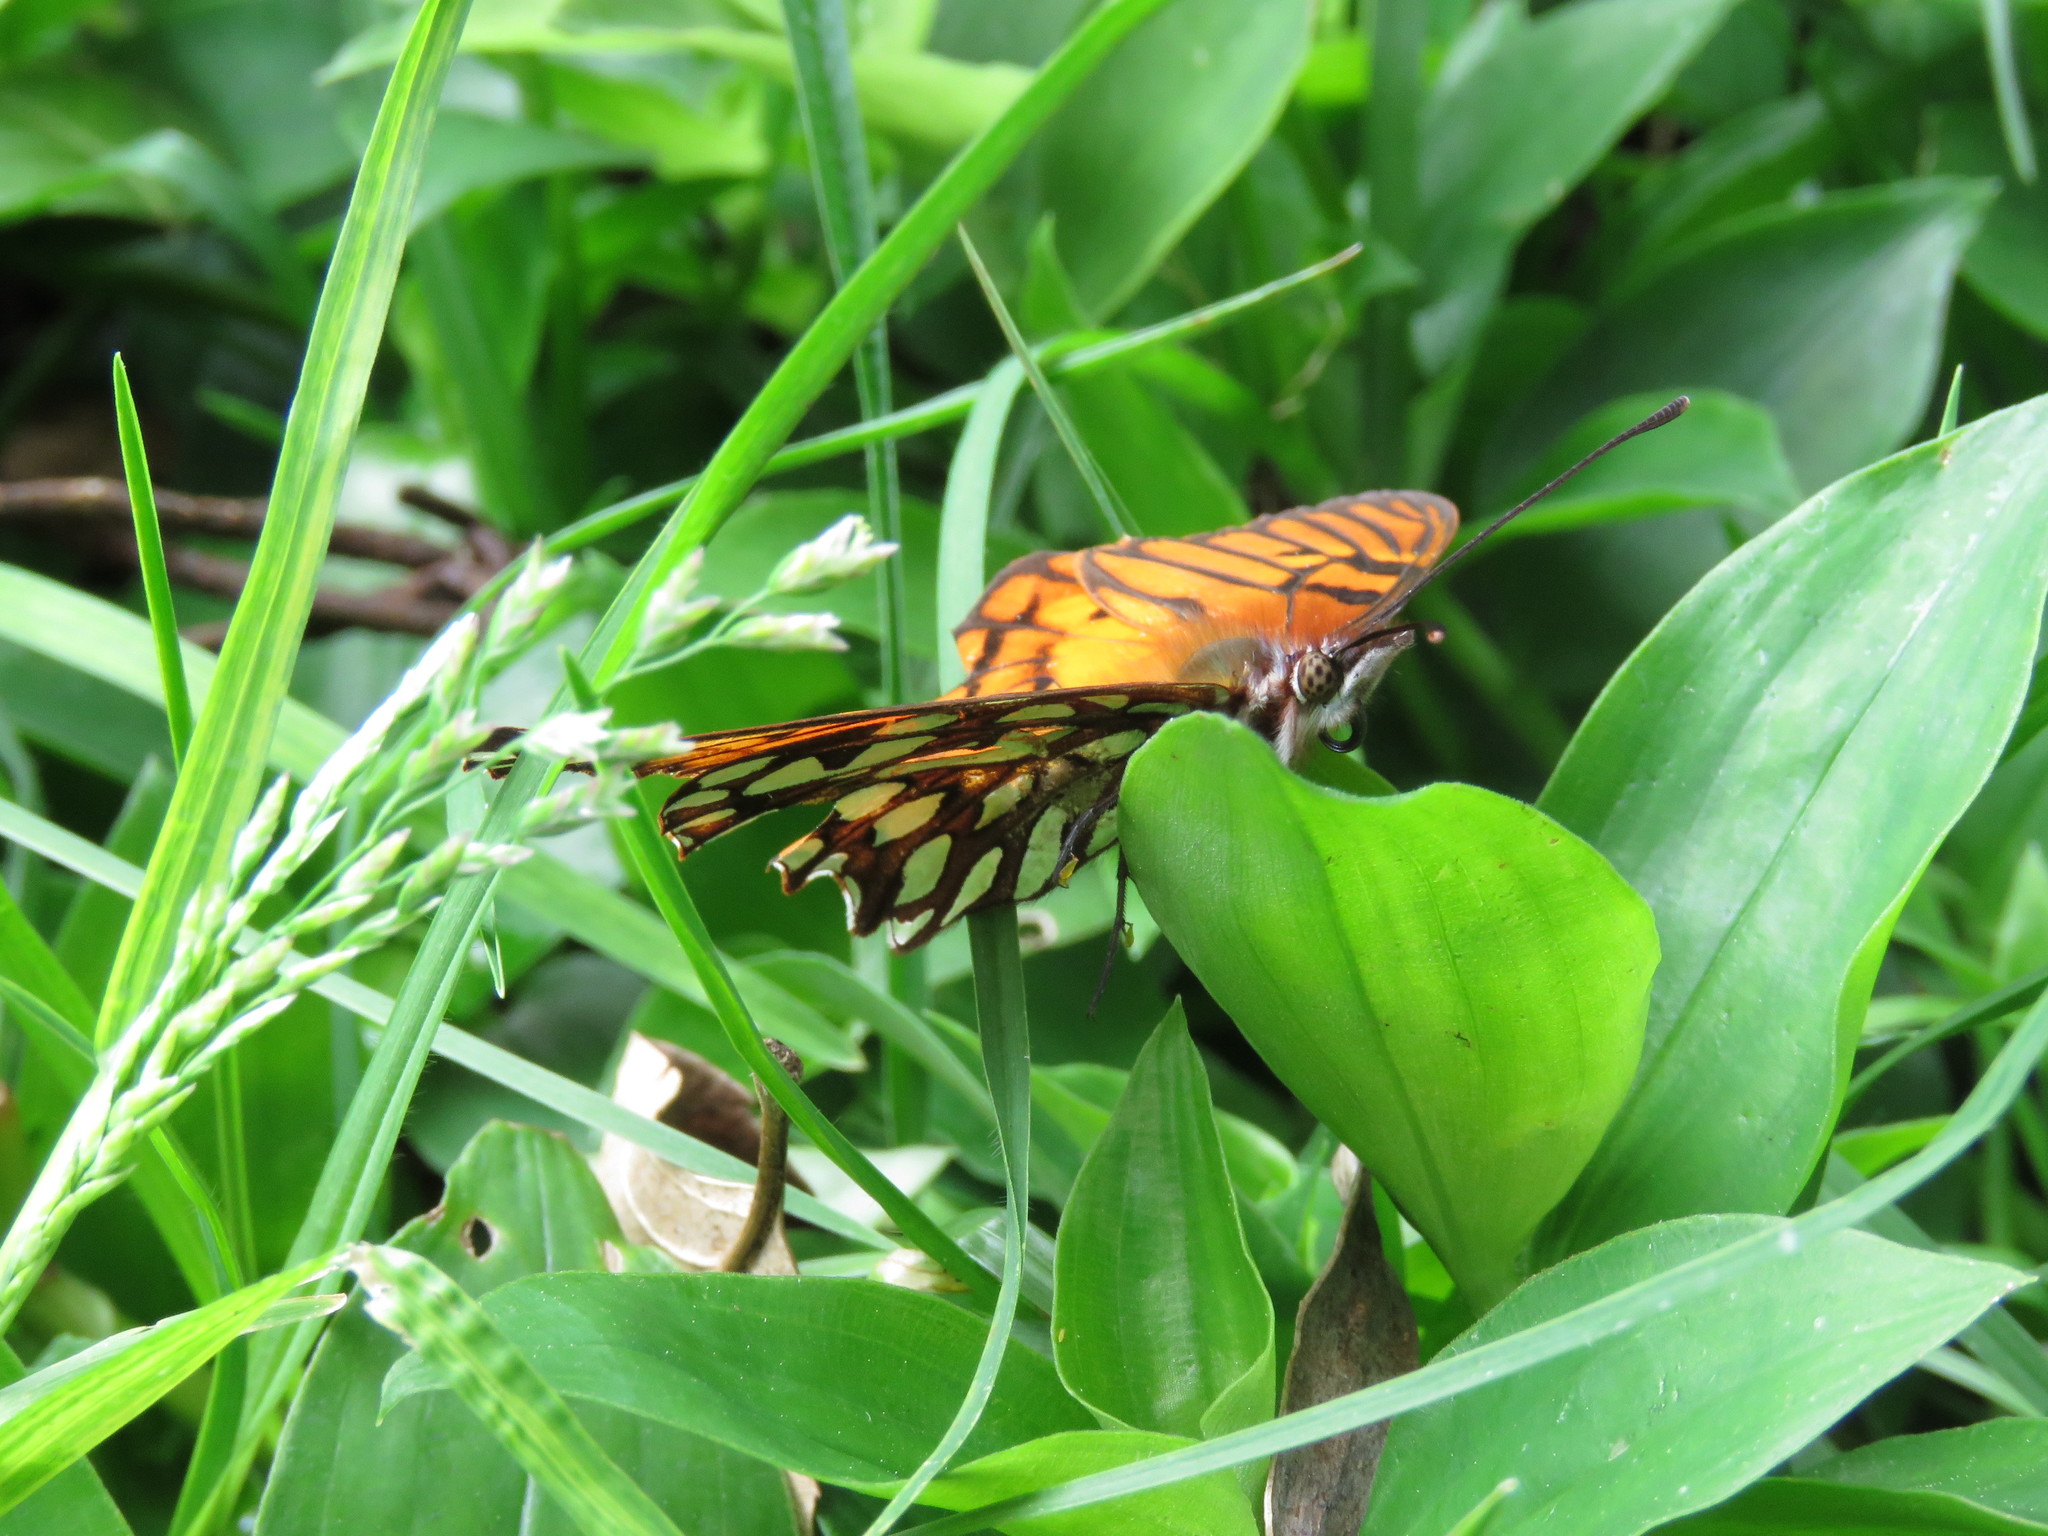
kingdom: Animalia
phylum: Arthropoda
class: Insecta
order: Lepidoptera
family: Nymphalidae
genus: Dione
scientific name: Dione glycera
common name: Andean silverspot
